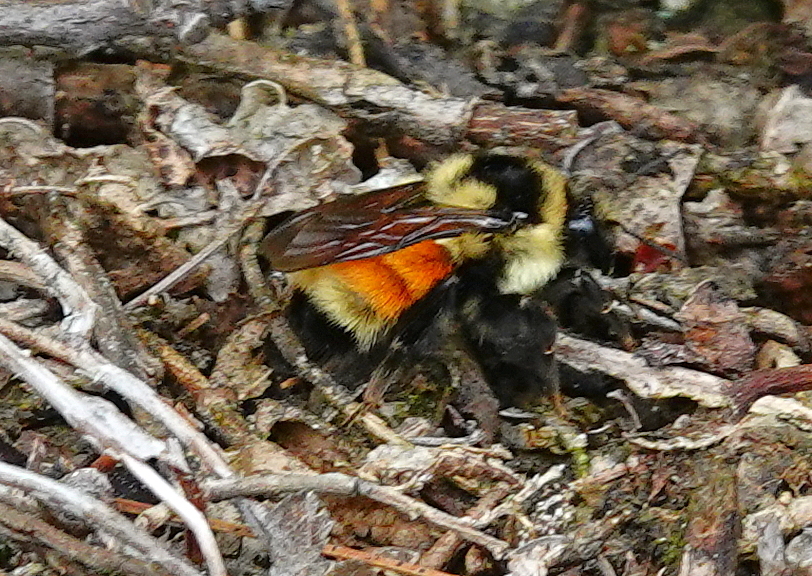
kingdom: Animalia
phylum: Arthropoda
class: Insecta
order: Hymenoptera
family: Apidae
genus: Bombus
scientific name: Bombus ternarius
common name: Tri-colored bumble bee
